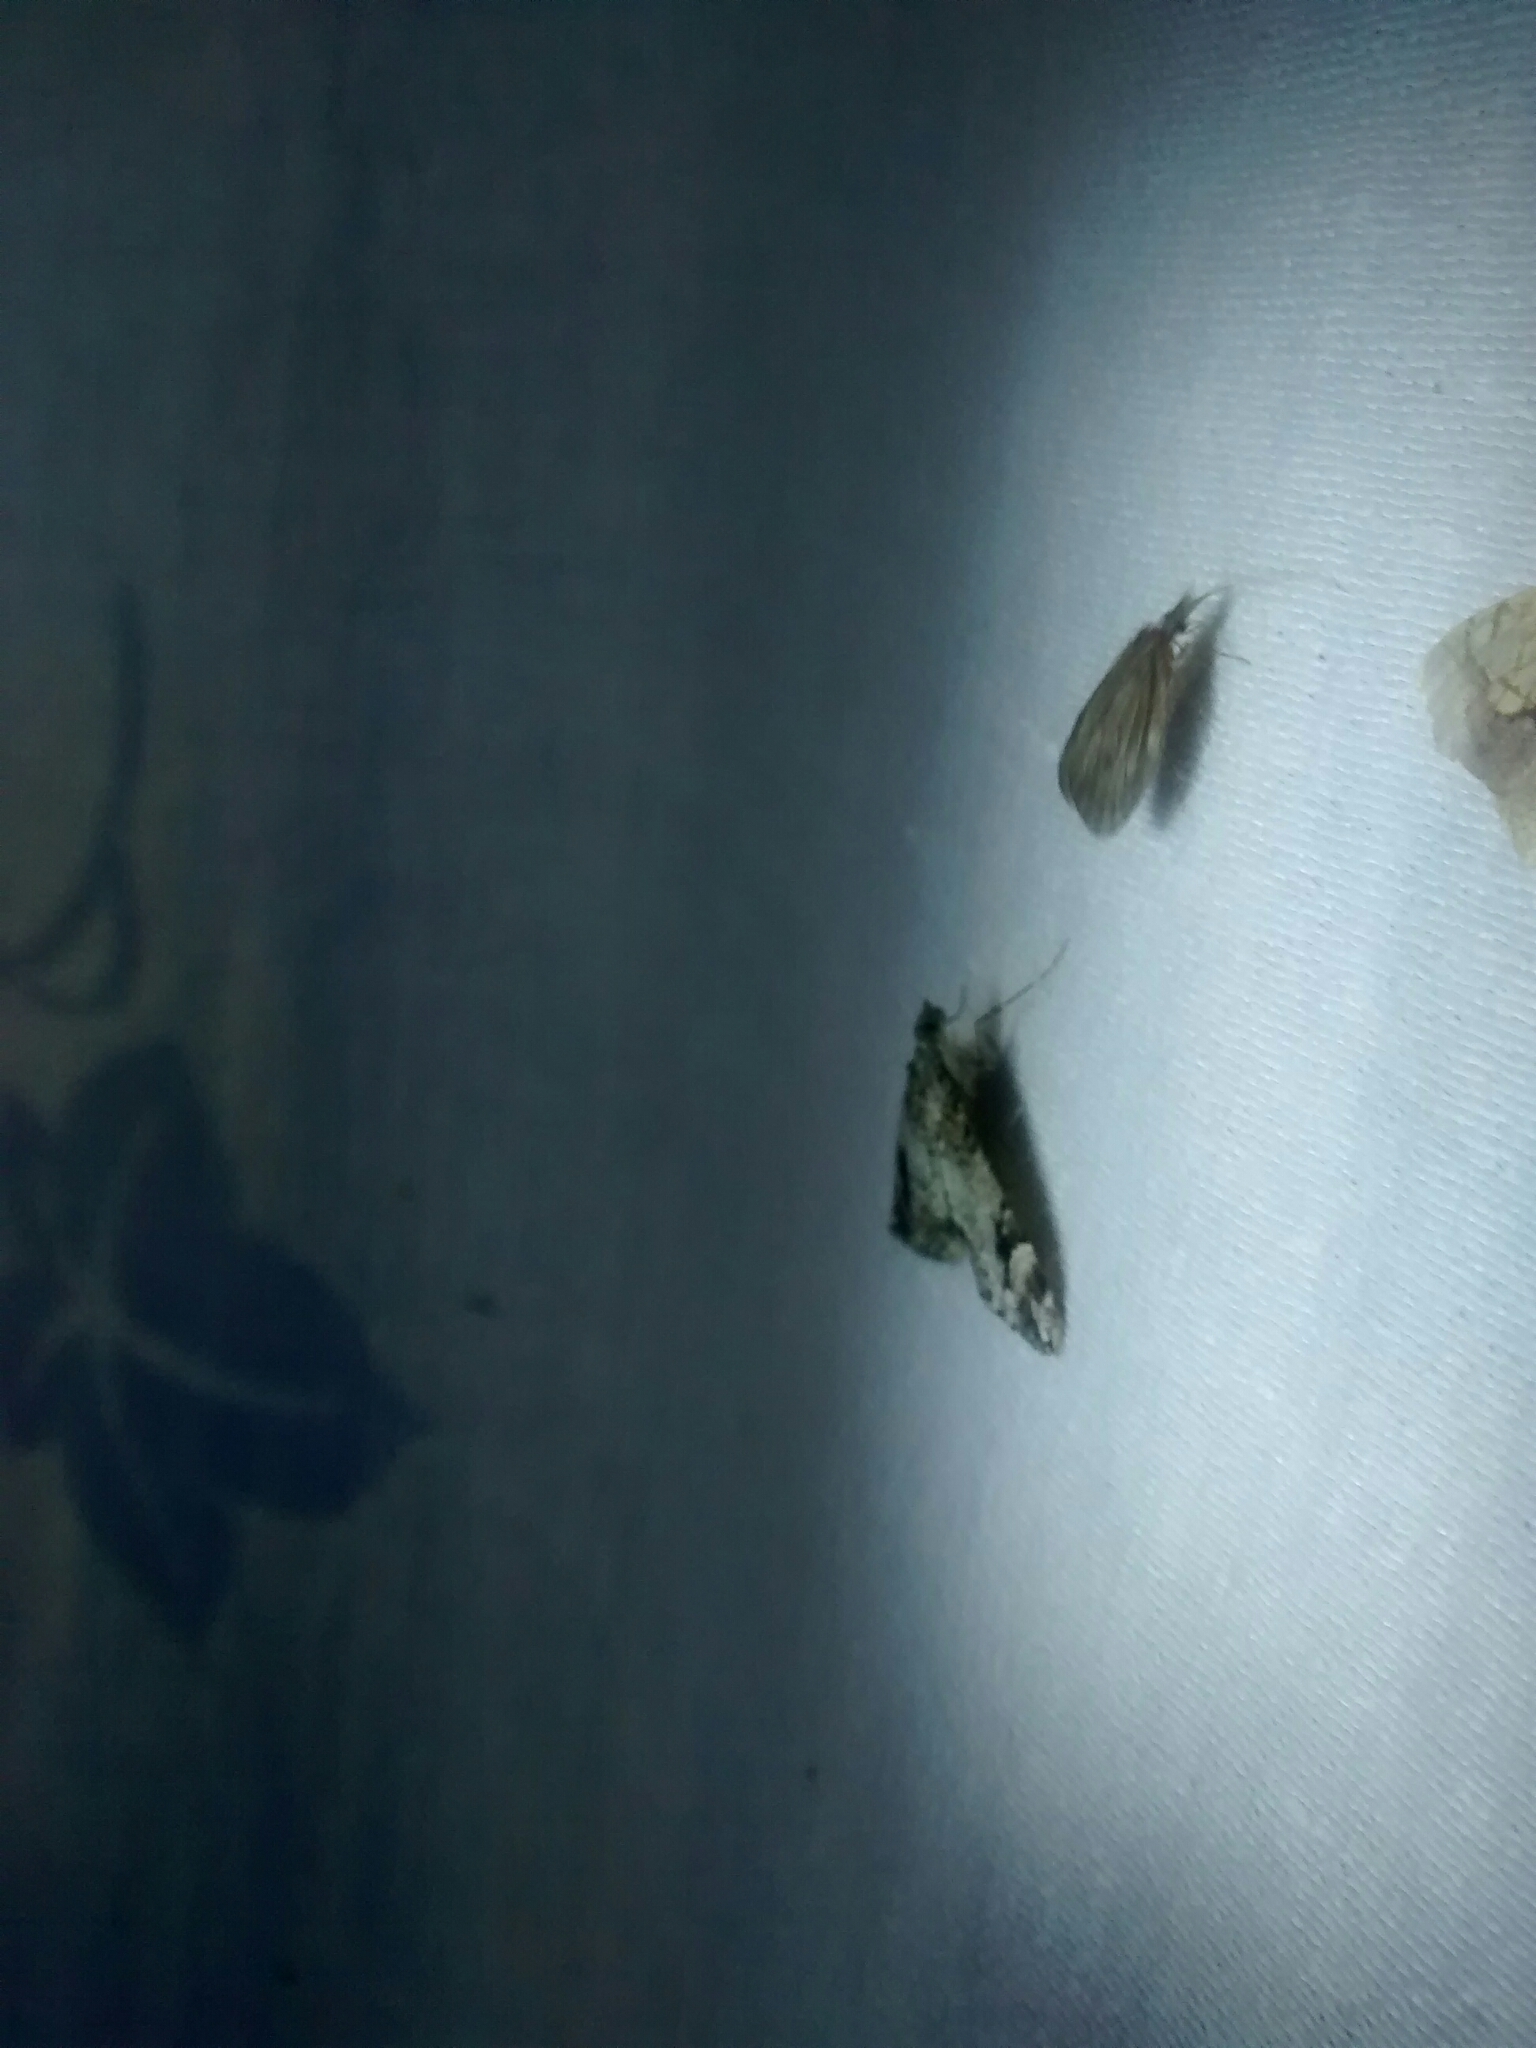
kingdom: Animalia
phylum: Arthropoda
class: Insecta
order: Lepidoptera
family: Geometridae
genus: Dysstroma
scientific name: Dysstroma citrata
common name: Dark marbled carpet
